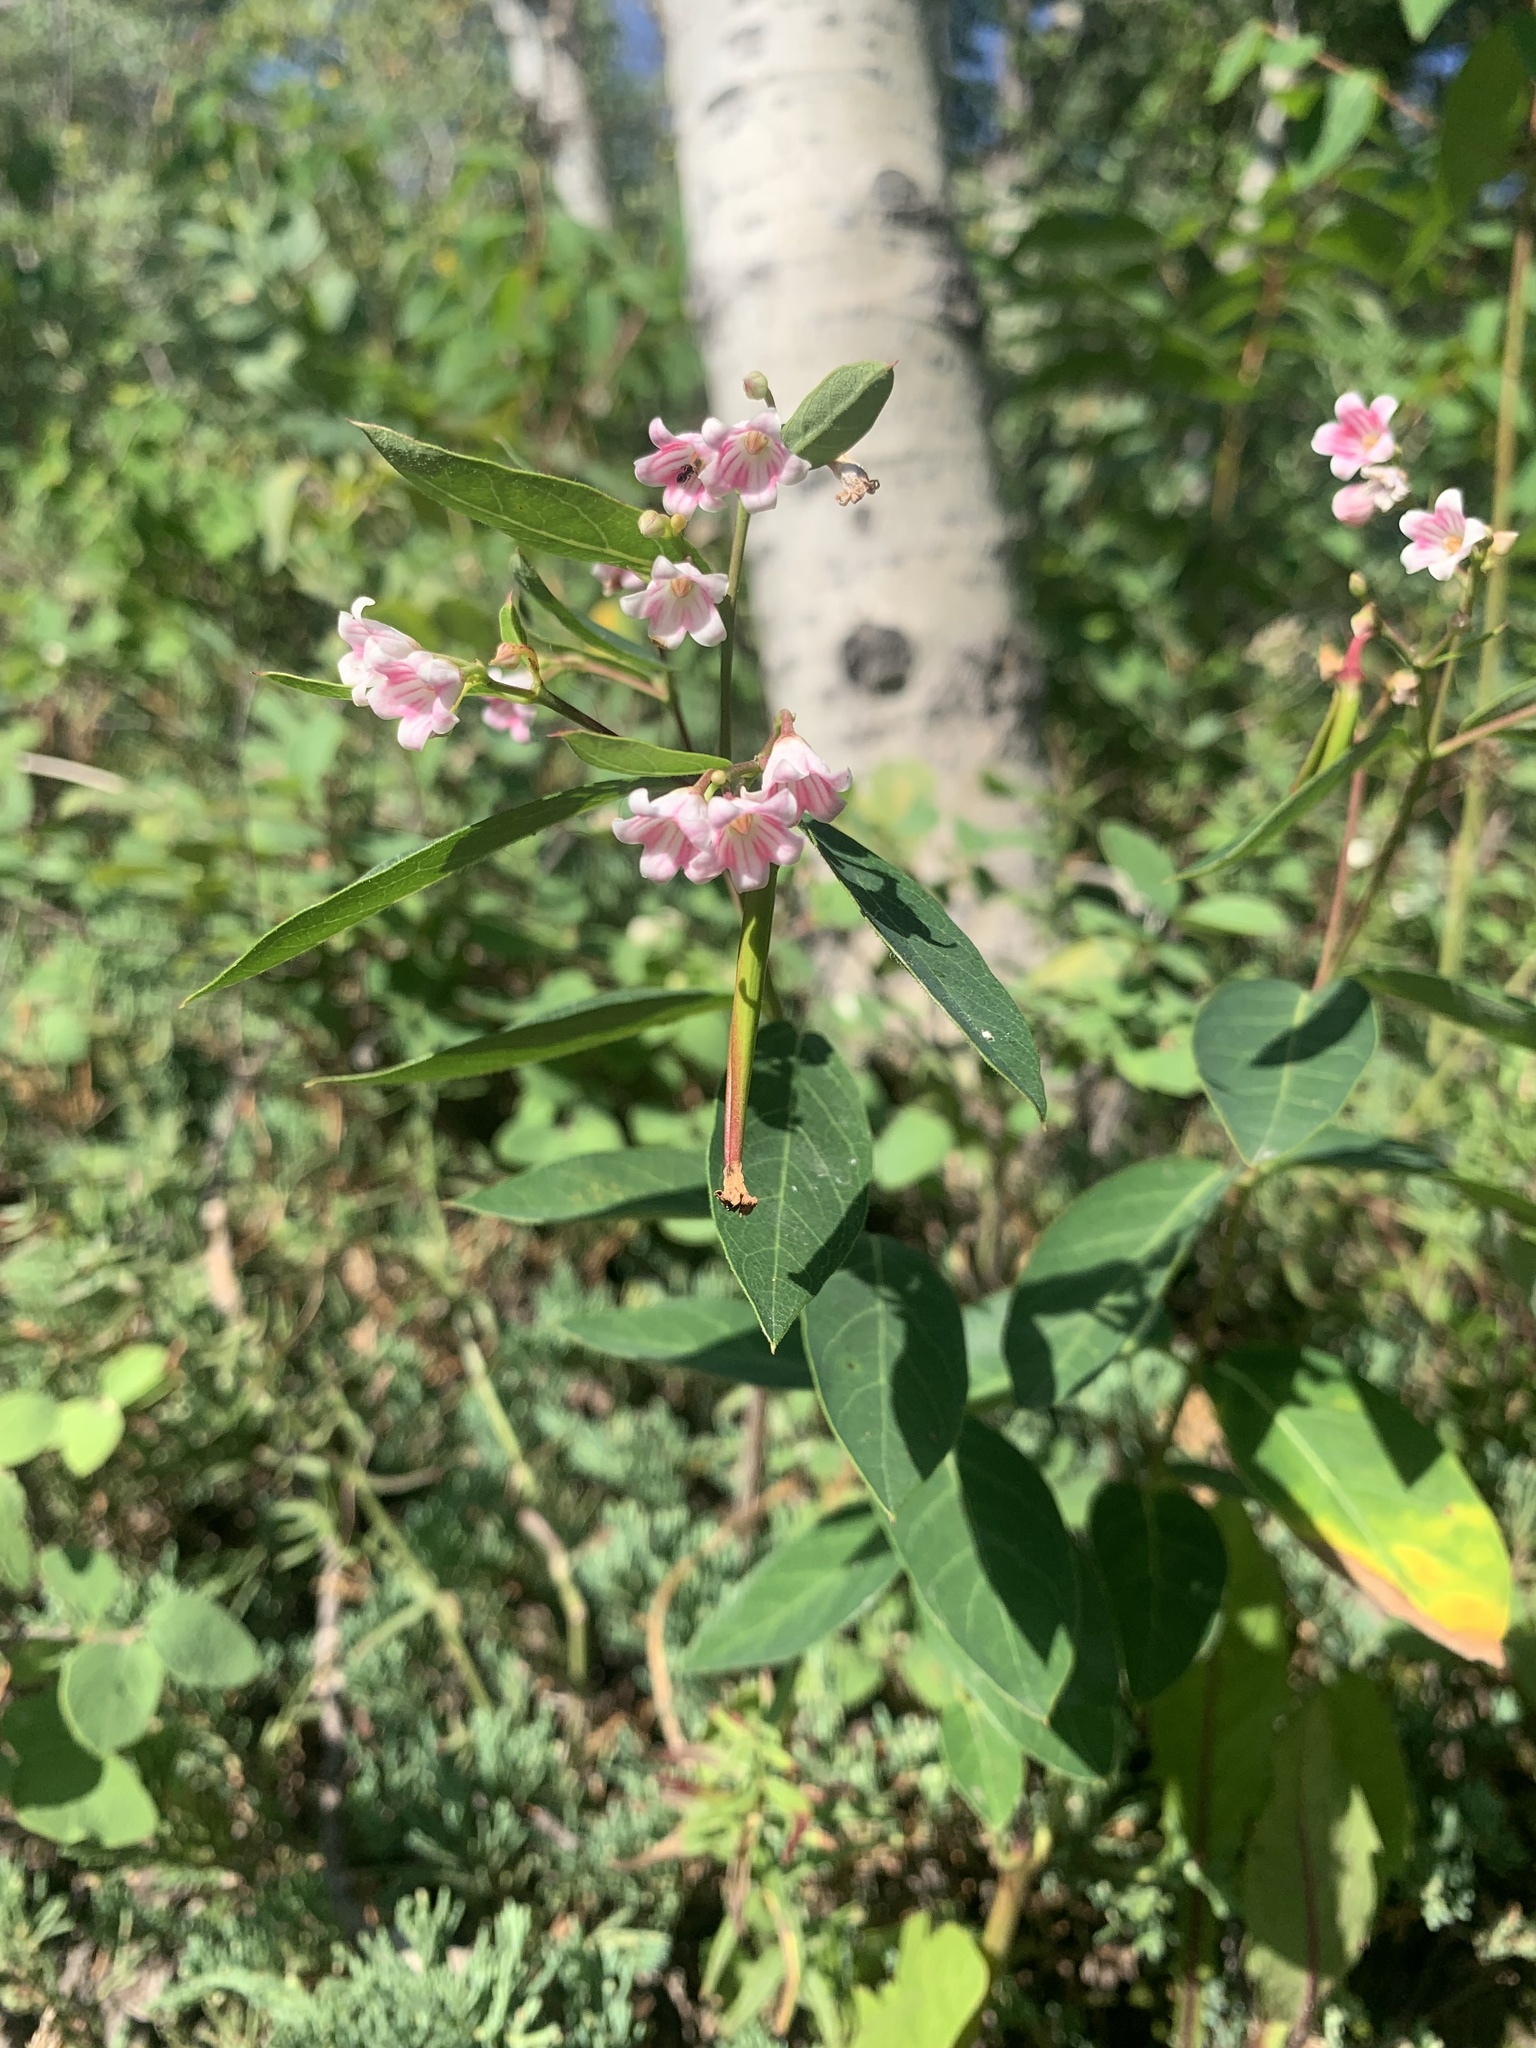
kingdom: Plantae
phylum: Tracheophyta
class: Magnoliopsida
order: Gentianales
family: Apocynaceae
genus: Apocynum
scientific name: Apocynum androsaemifolium
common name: Spreading dogbane
